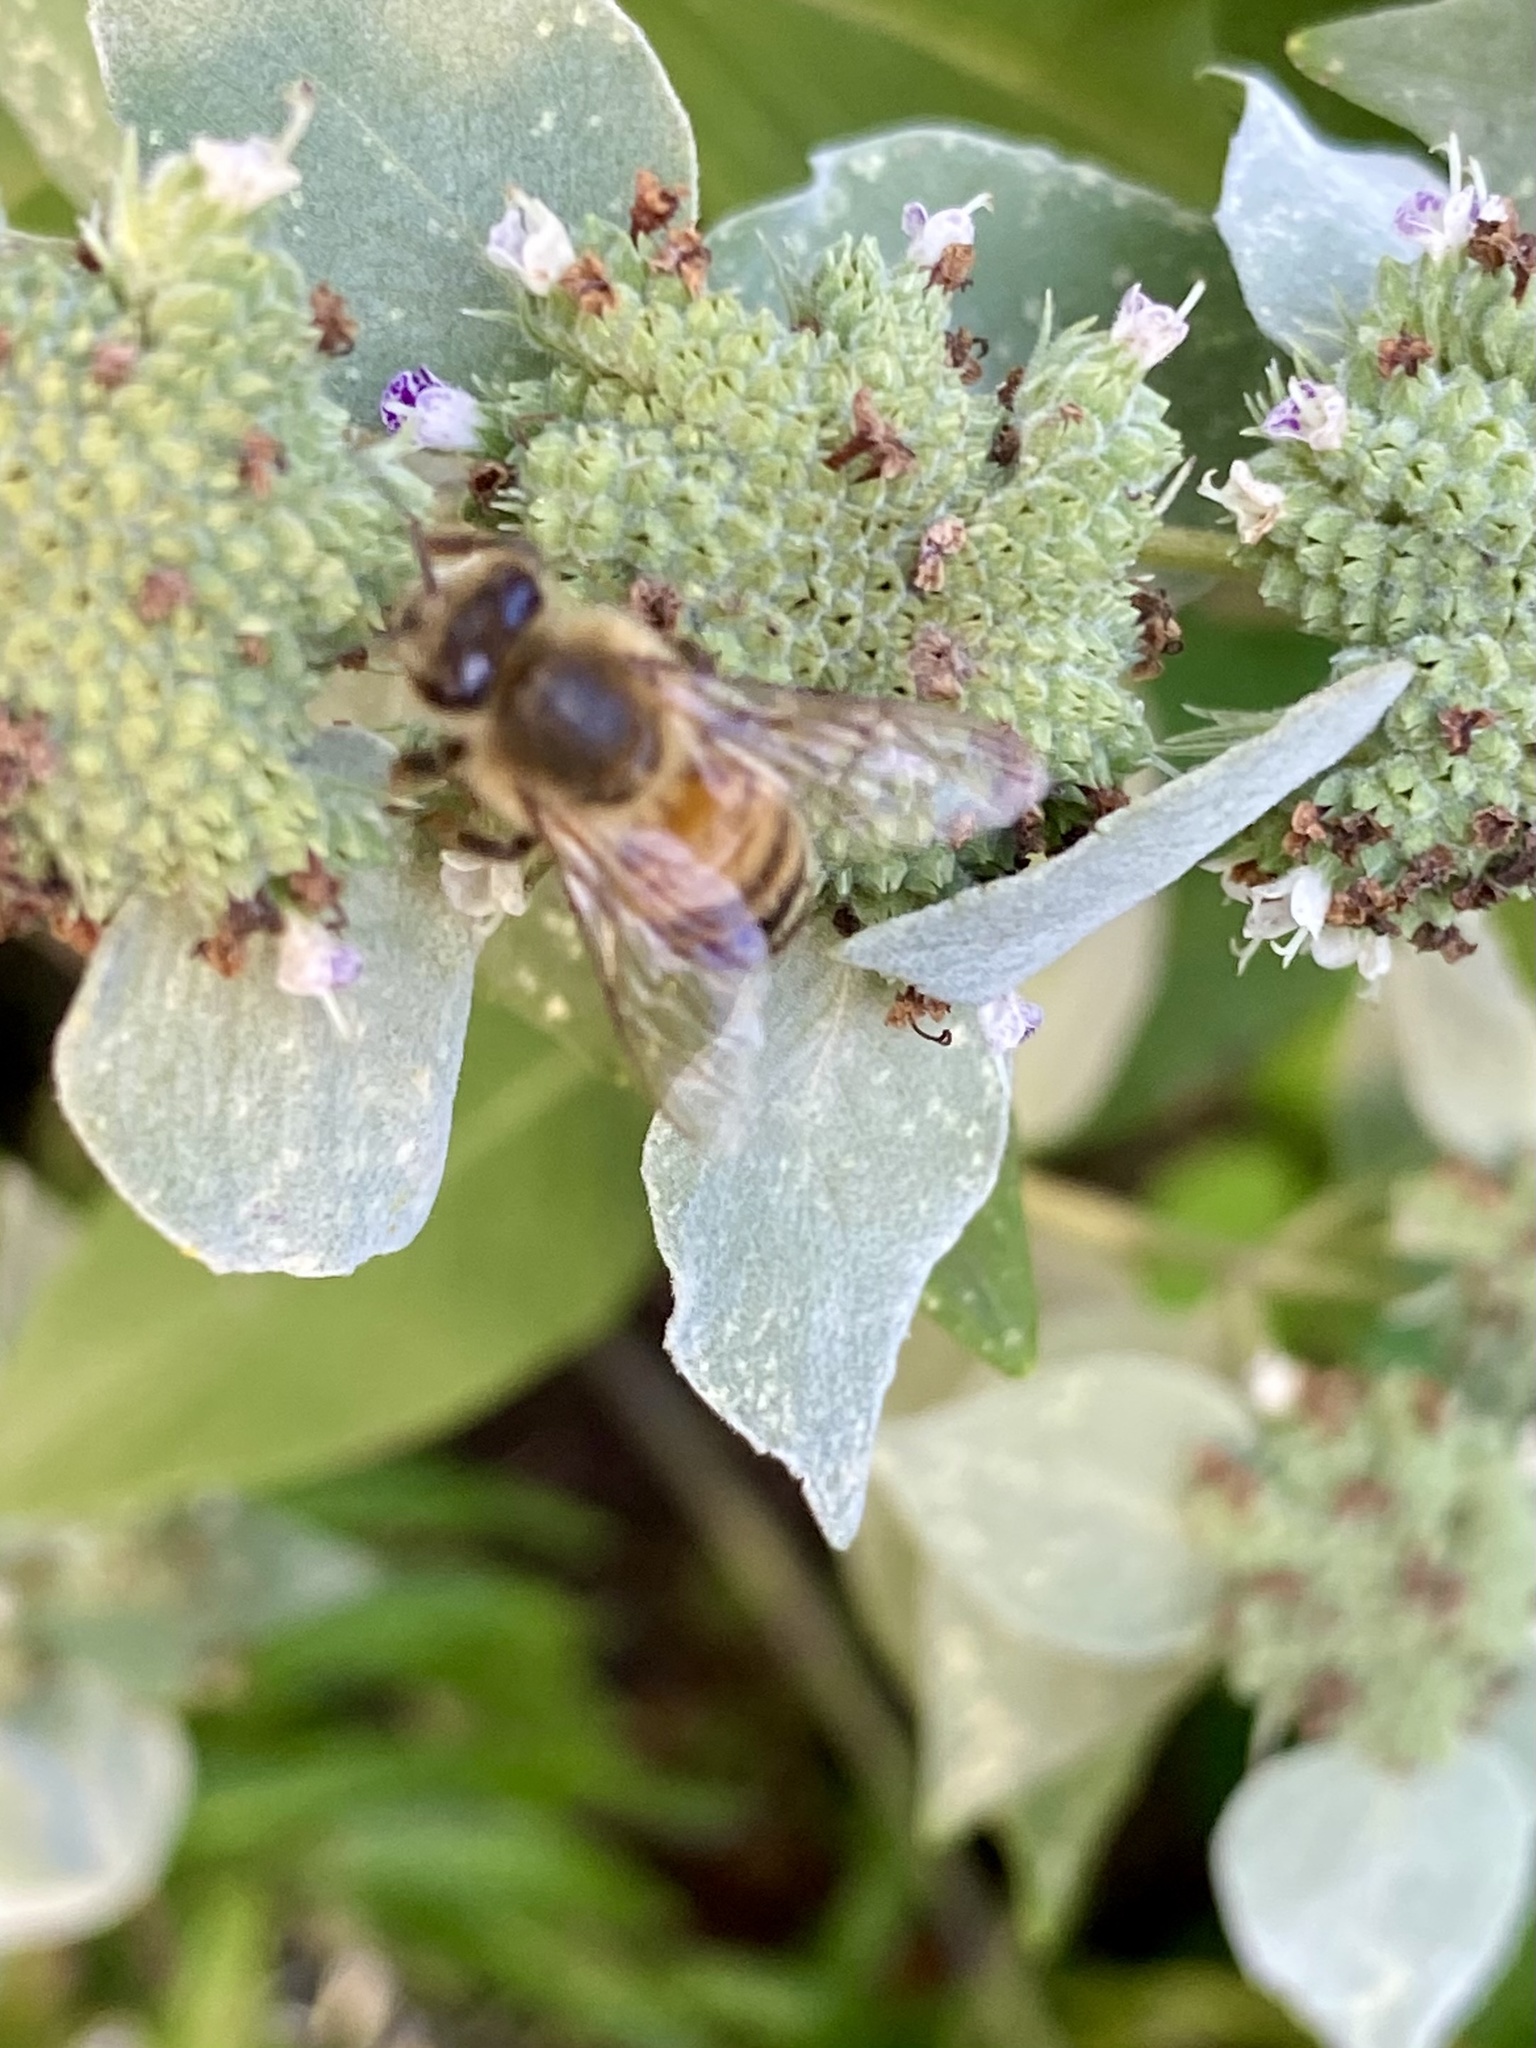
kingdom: Animalia
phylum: Arthropoda
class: Insecta
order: Hymenoptera
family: Apidae
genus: Apis
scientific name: Apis mellifera
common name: Honey bee
